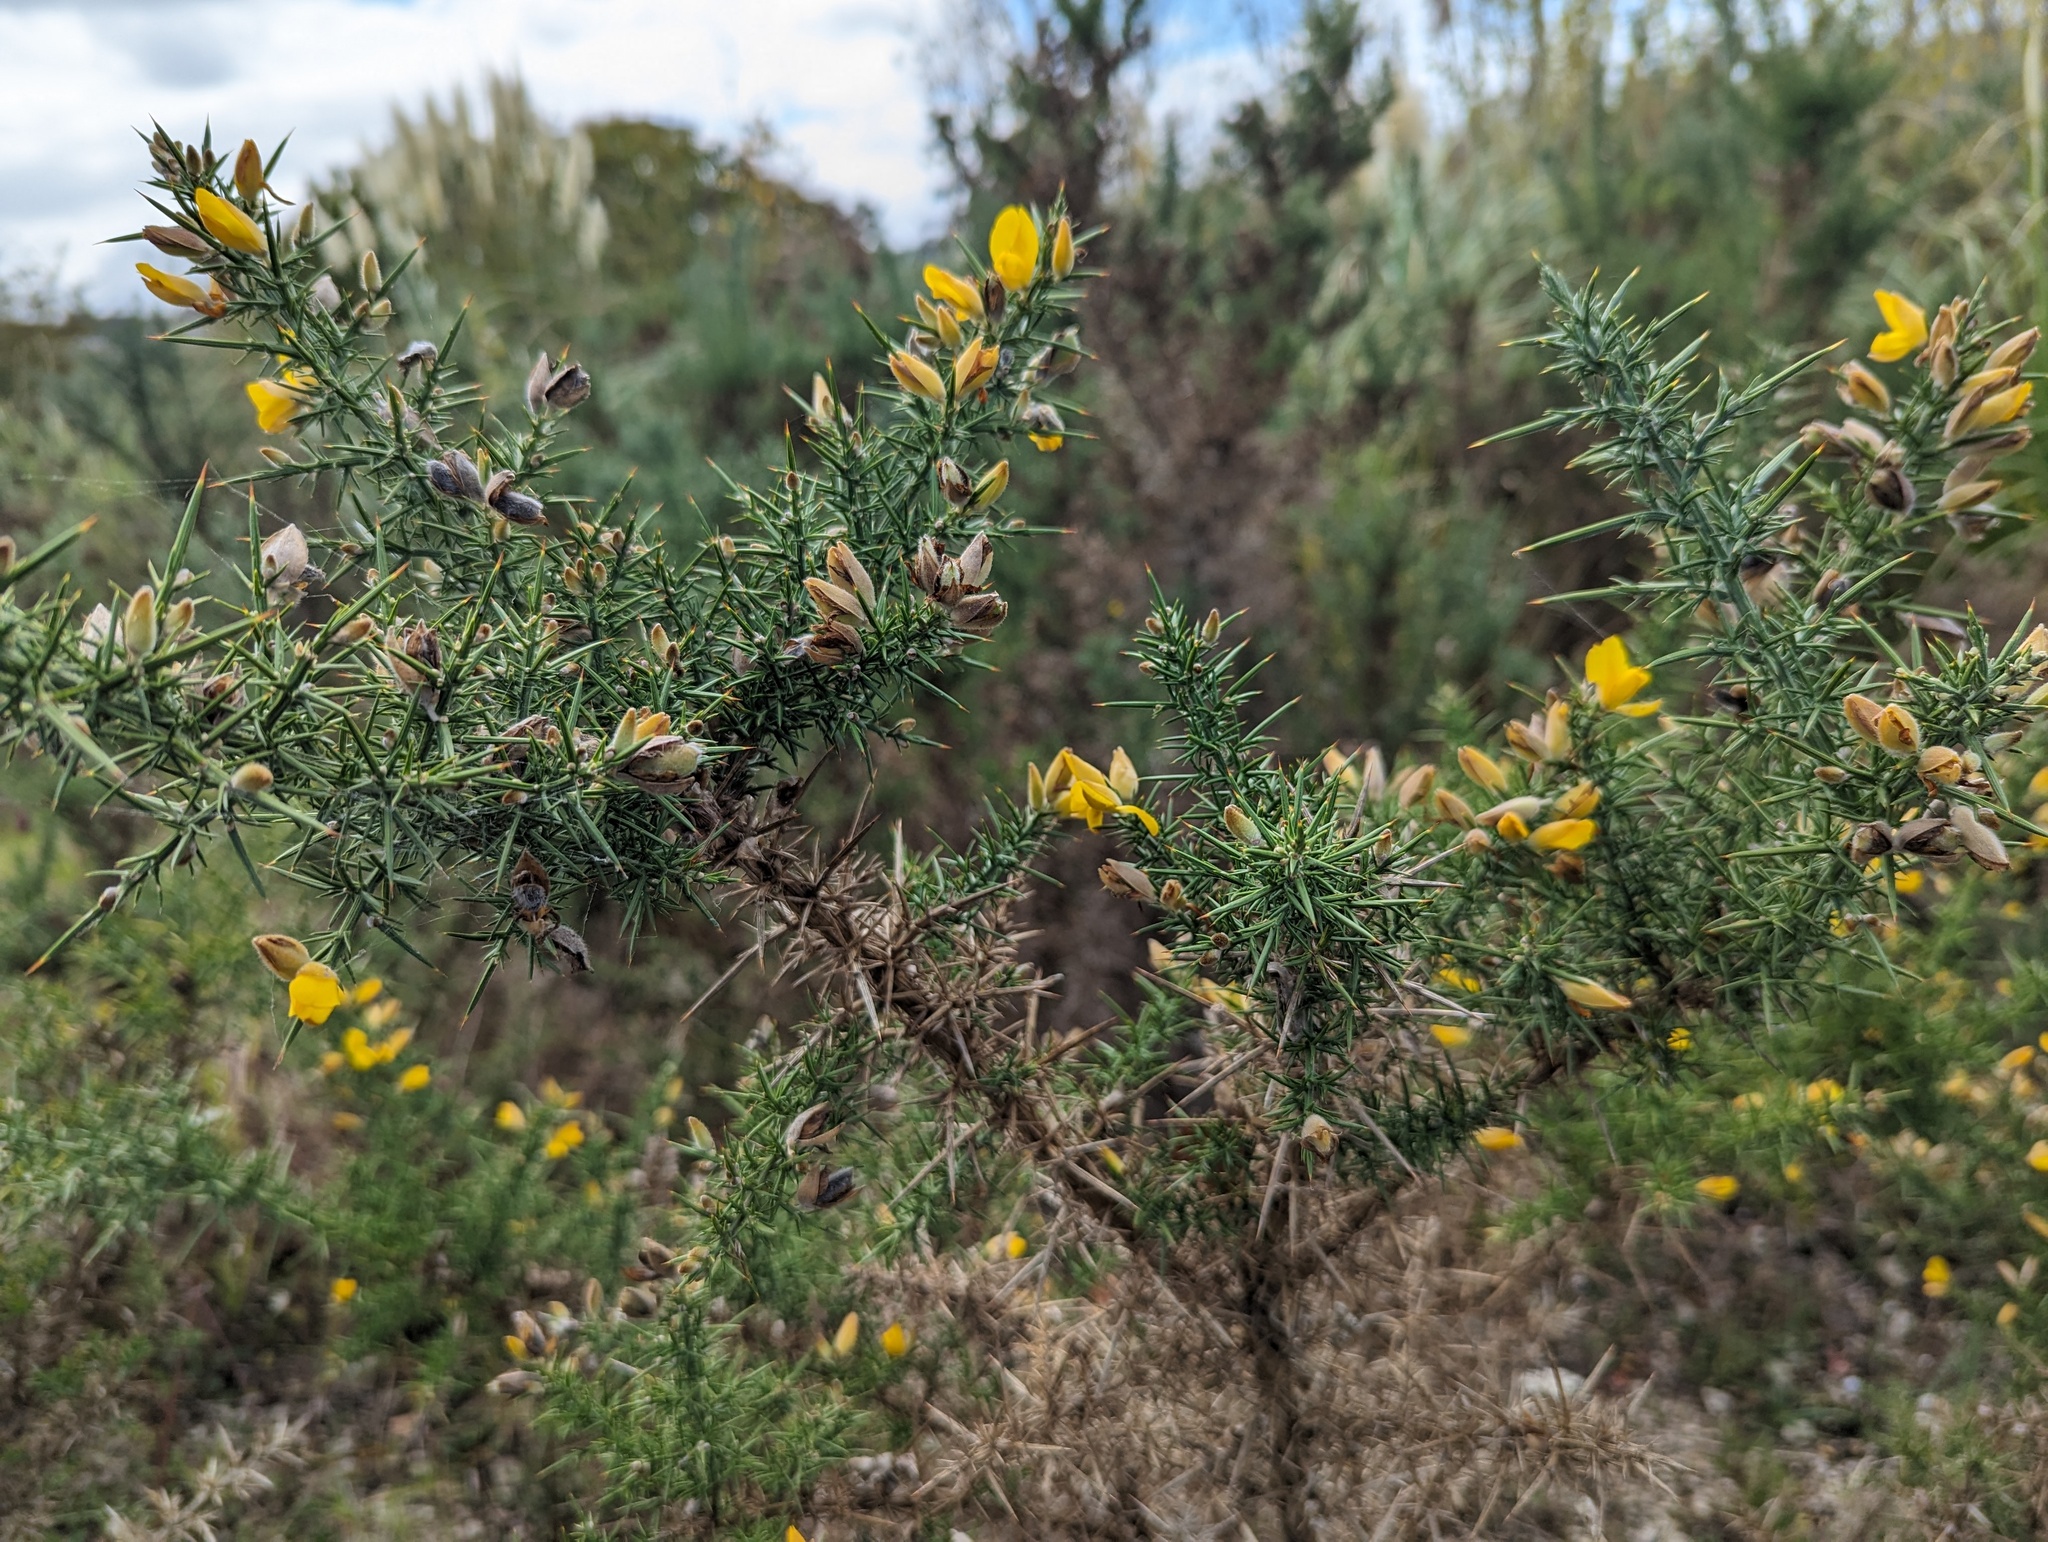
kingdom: Plantae
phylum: Tracheophyta
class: Magnoliopsida
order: Fabales
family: Fabaceae
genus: Ulex
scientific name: Ulex europaeus
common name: Common gorse
